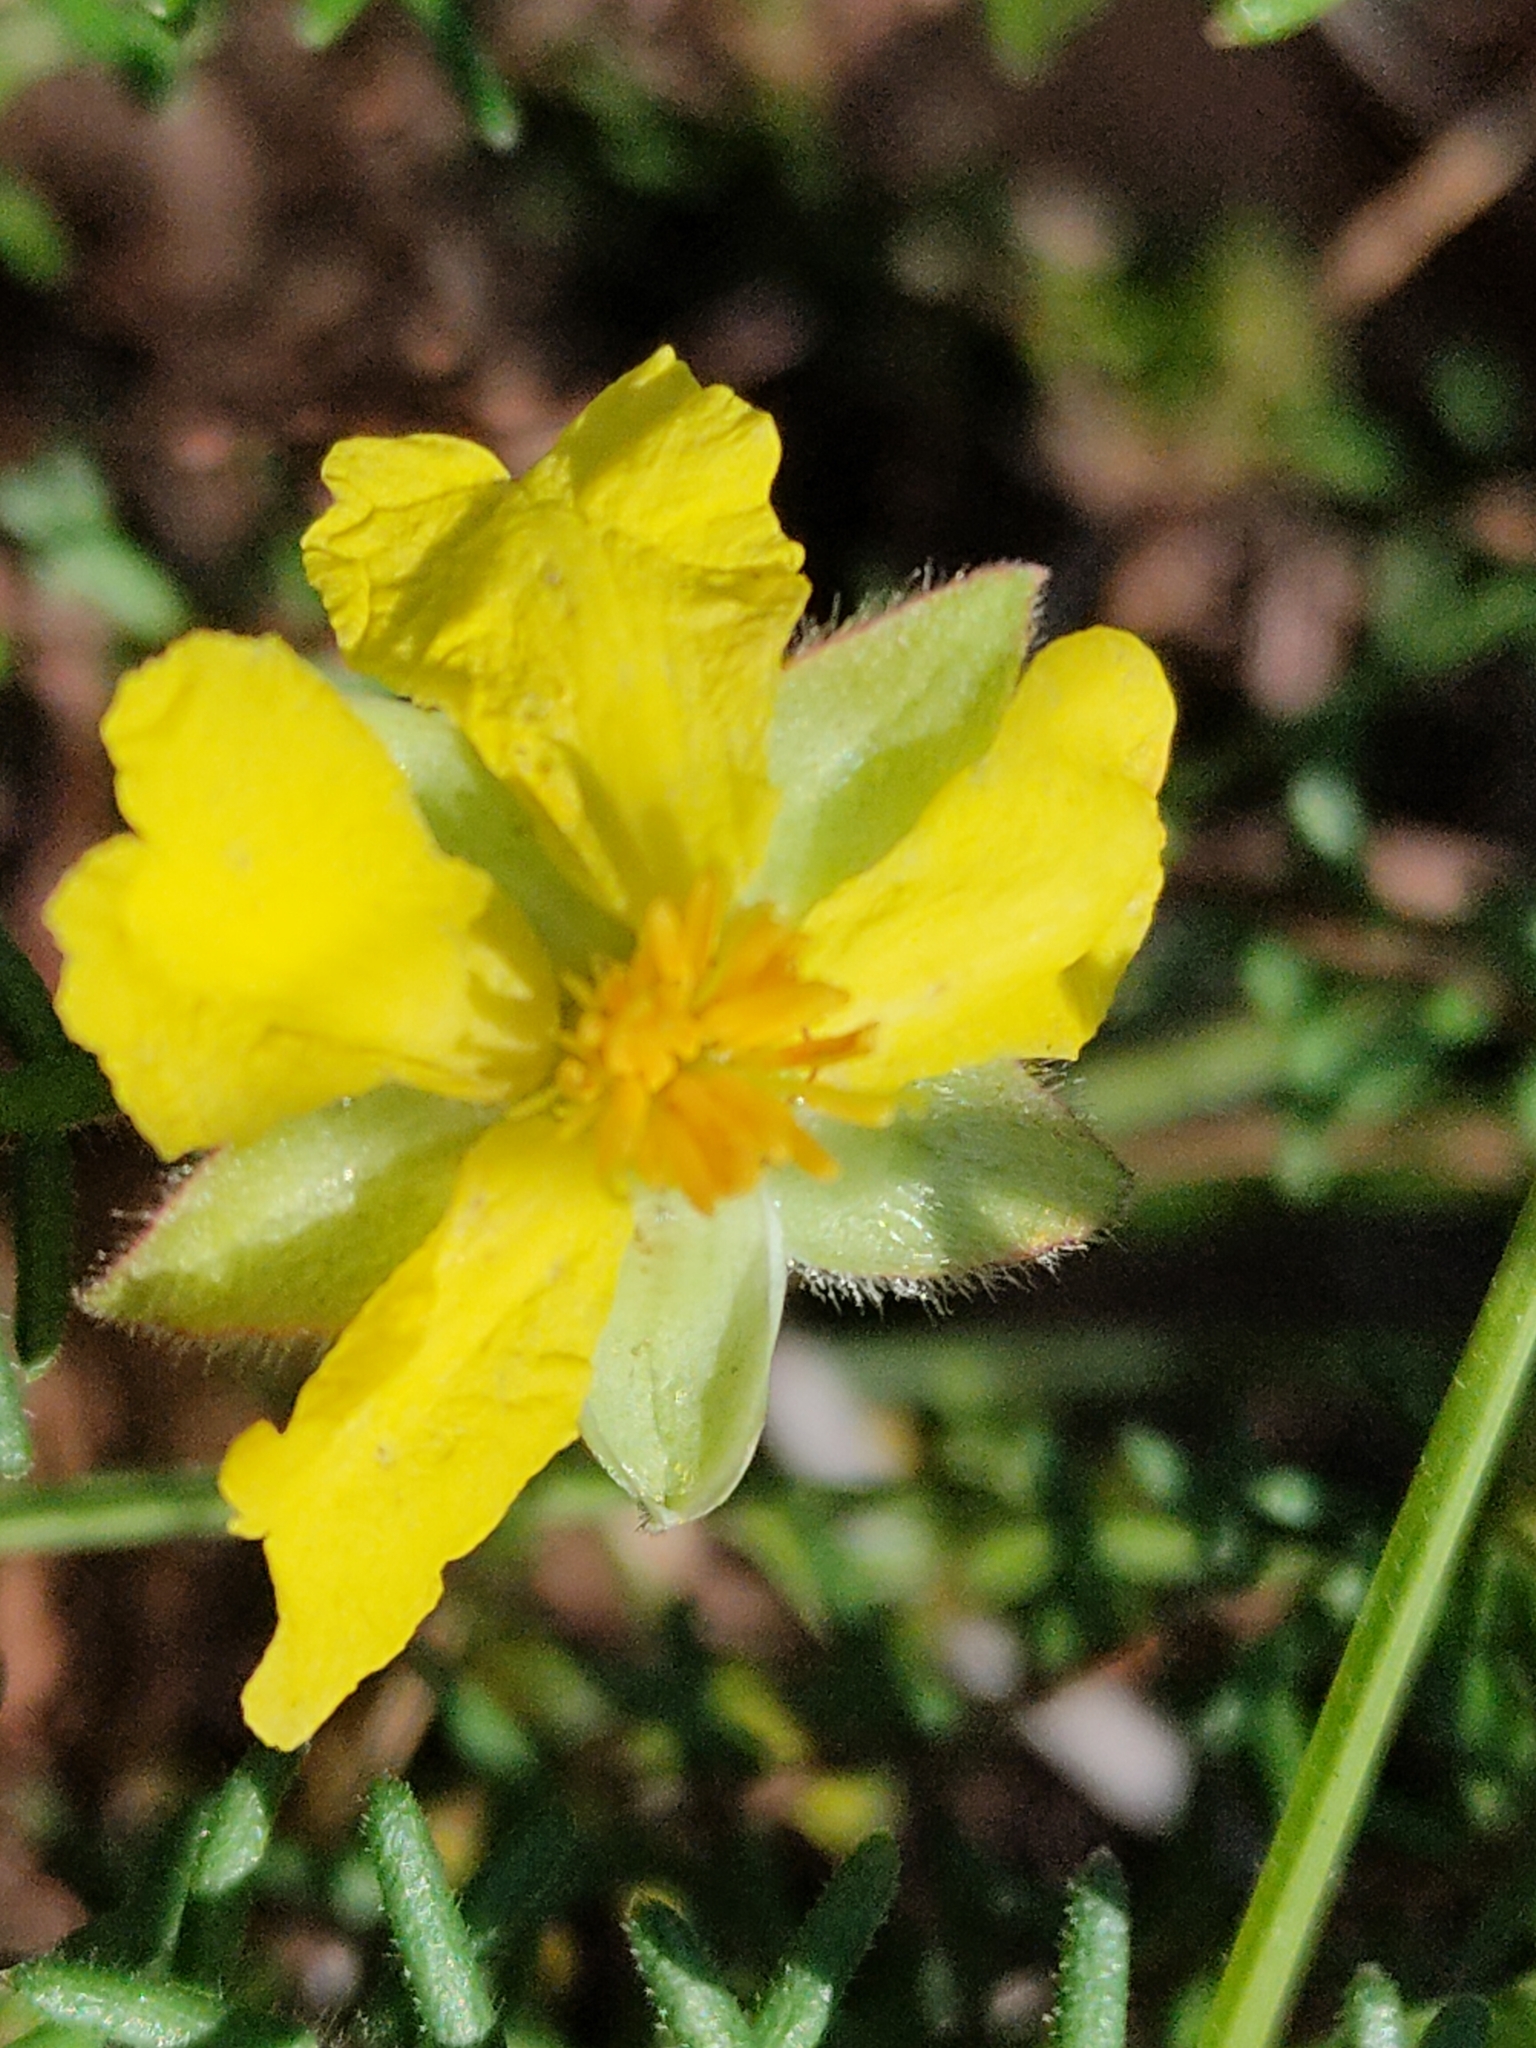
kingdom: Plantae
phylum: Tracheophyta
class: Magnoliopsida
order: Dilleniales
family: Dilleniaceae
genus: Hibbertia
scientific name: Hibbertia vestita
